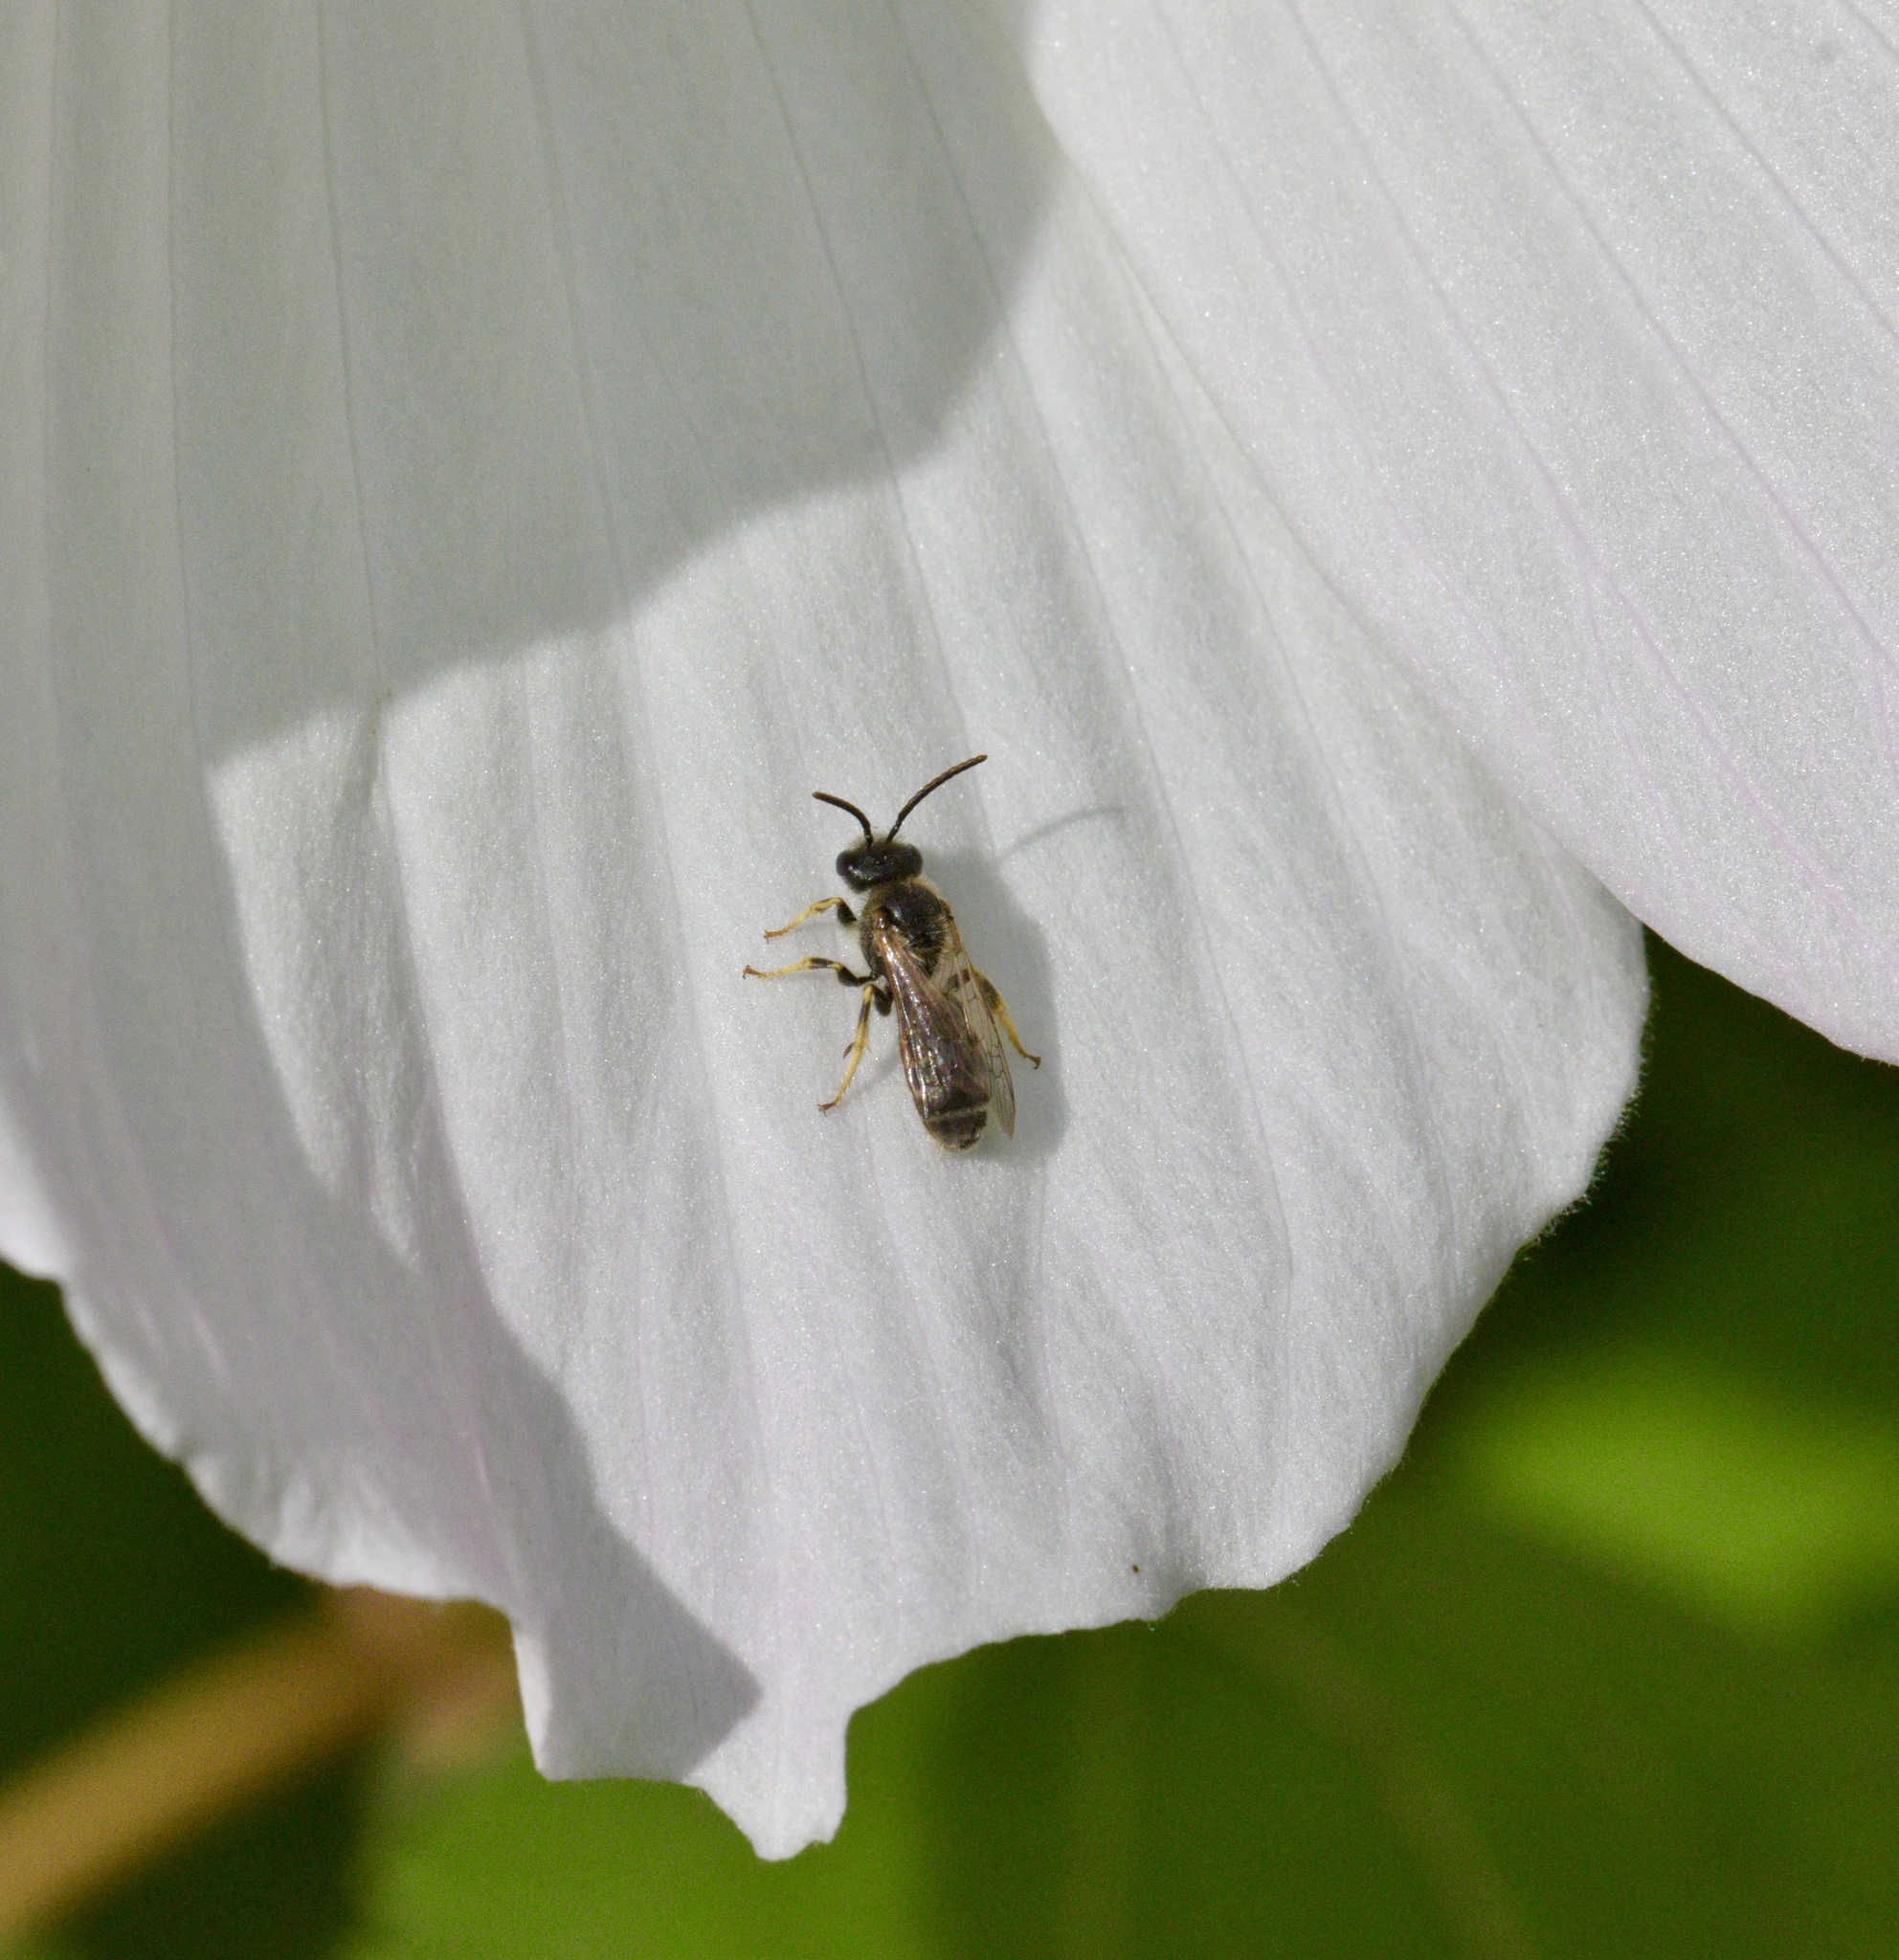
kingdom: Animalia
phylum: Arthropoda
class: Insecta
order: Hymenoptera
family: Halictidae
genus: Halictus
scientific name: Halictus ligatus
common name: Ligated furrow bee
